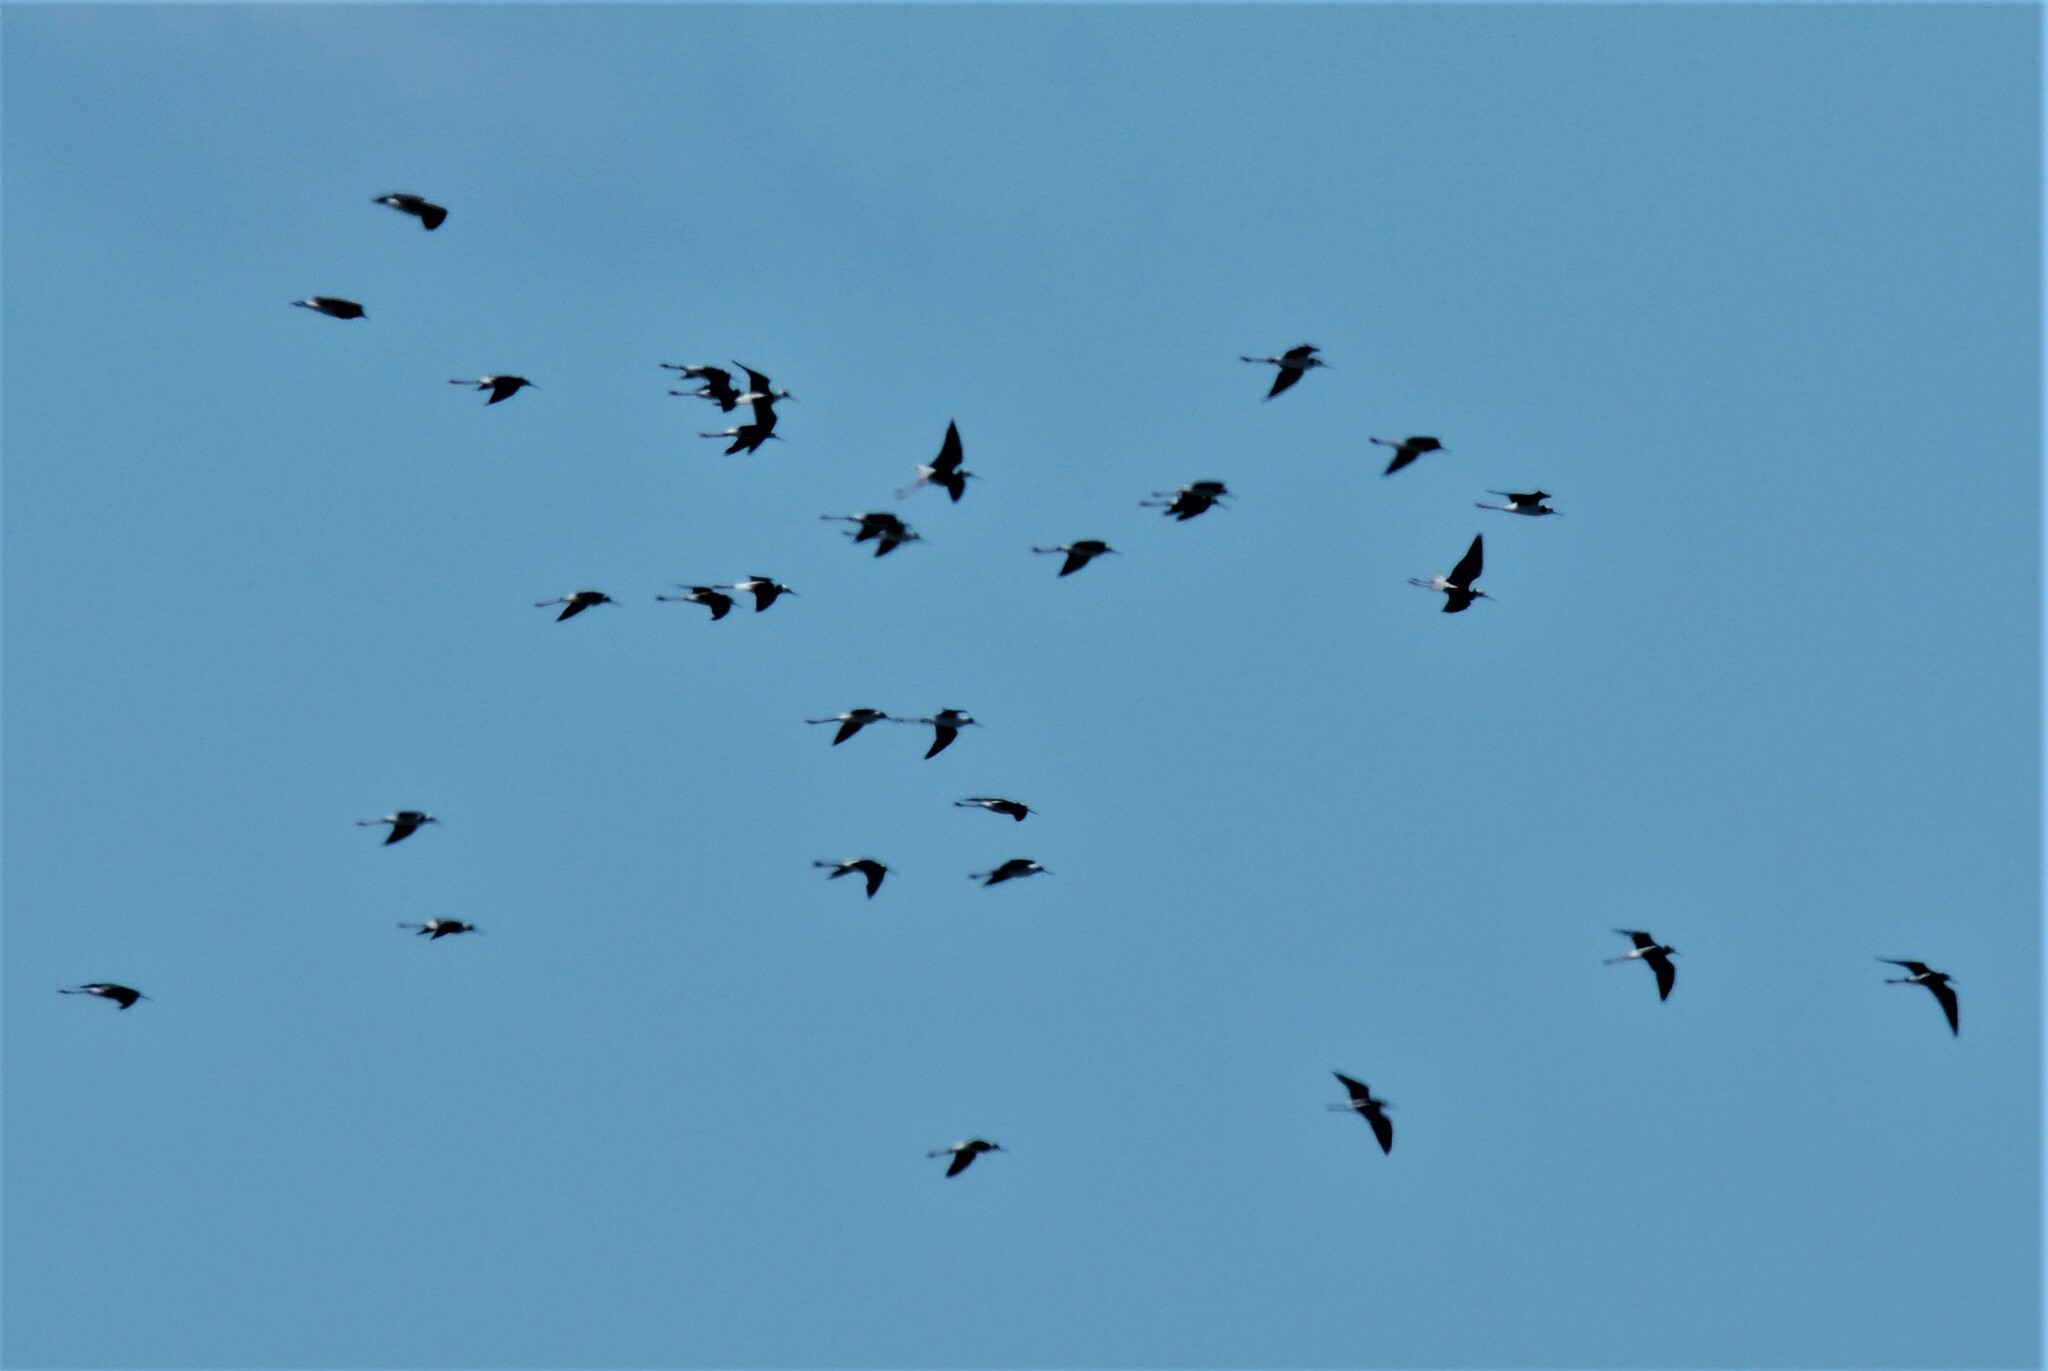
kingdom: Animalia
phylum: Chordata
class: Aves
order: Charadriiformes
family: Recurvirostridae
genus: Himantopus
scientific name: Himantopus leucocephalus
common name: White-headed stilt
